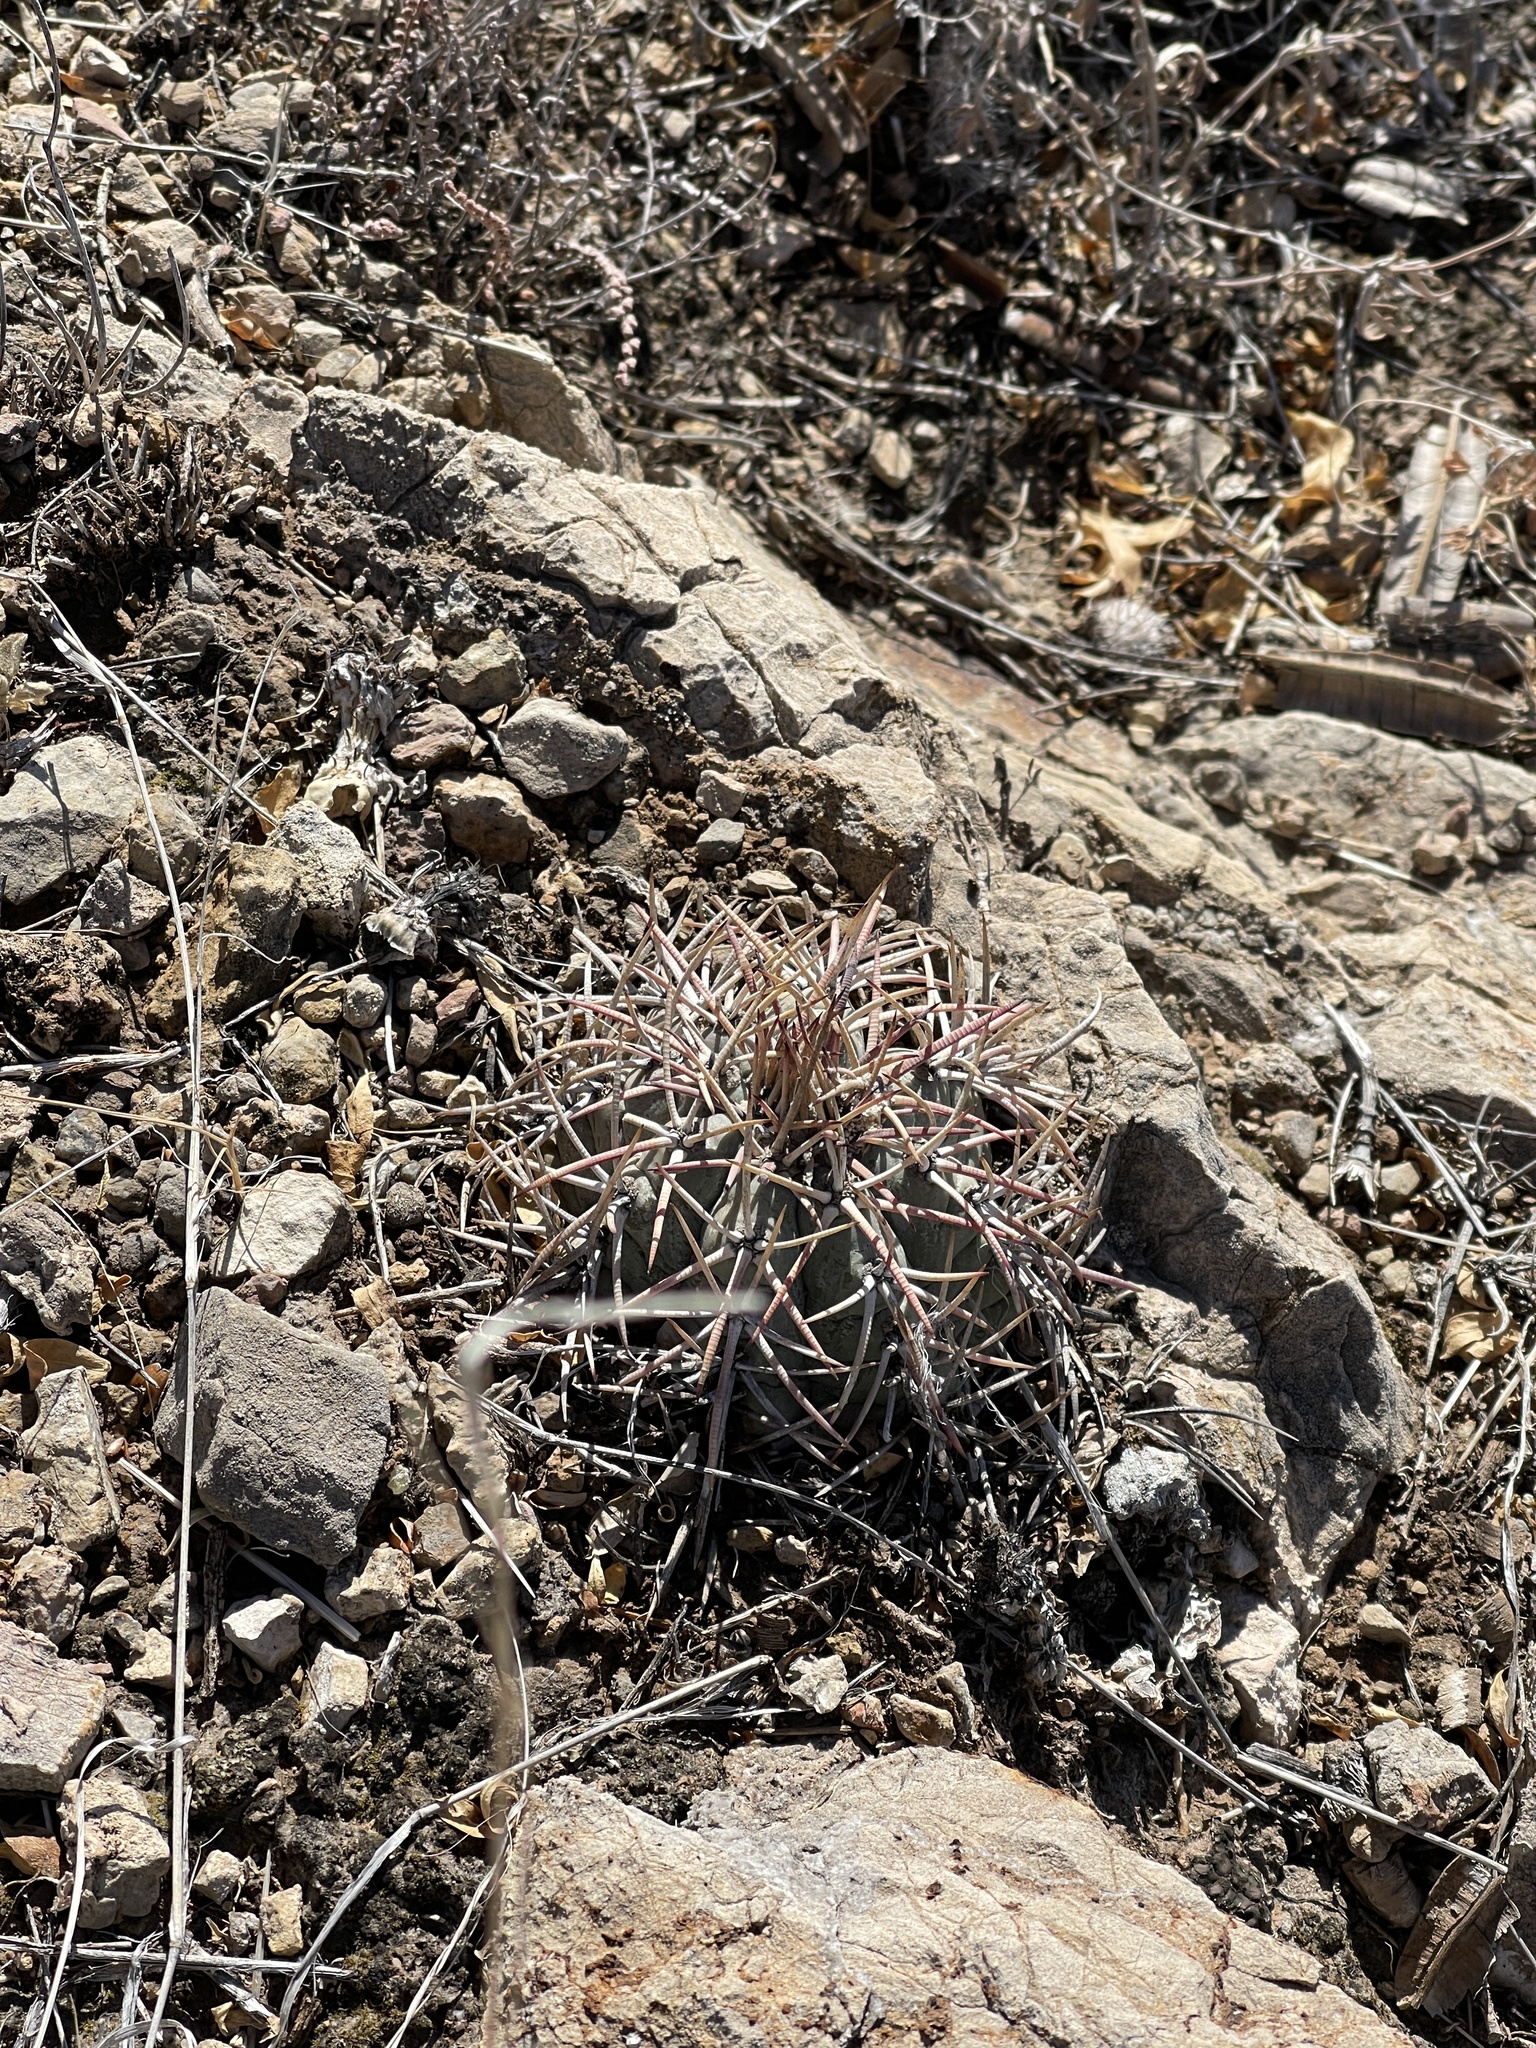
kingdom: Plantae
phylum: Tracheophyta
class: Magnoliopsida
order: Caryophyllales
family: Cactaceae
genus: Echinocactus
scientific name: Echinocactus horizonthalonius
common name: Devilshead
